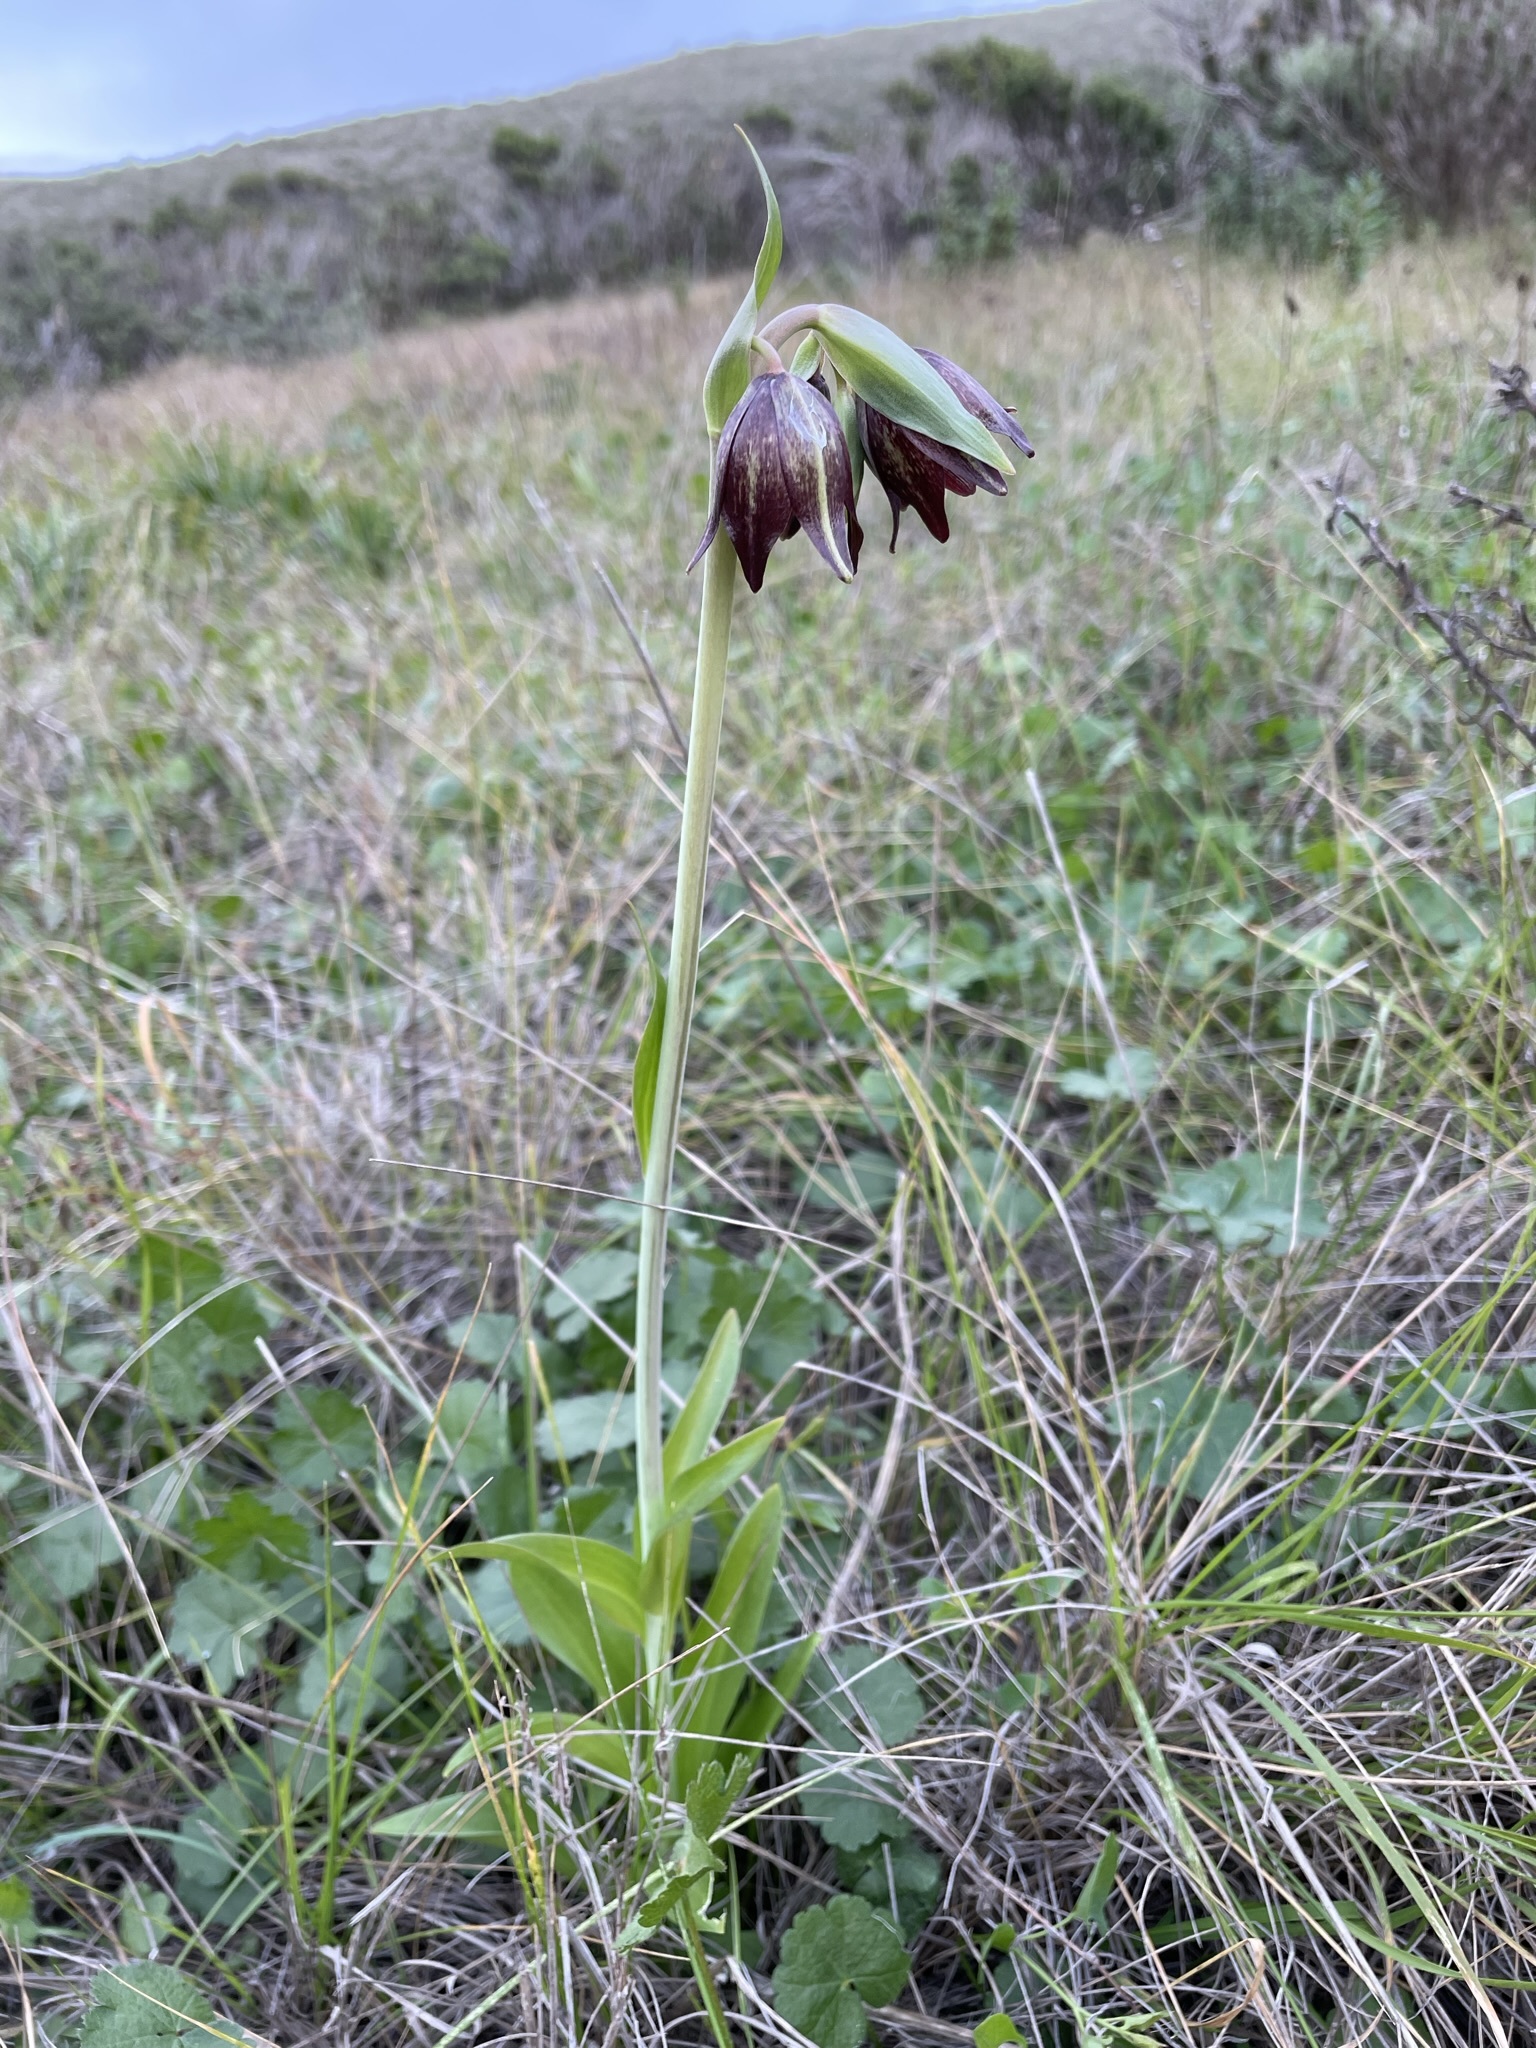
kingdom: Plantae
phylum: Tracheophyta
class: Liliopsida
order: Liliales
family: Liliaceae
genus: Fritillaria
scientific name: Fritillaria biflora
